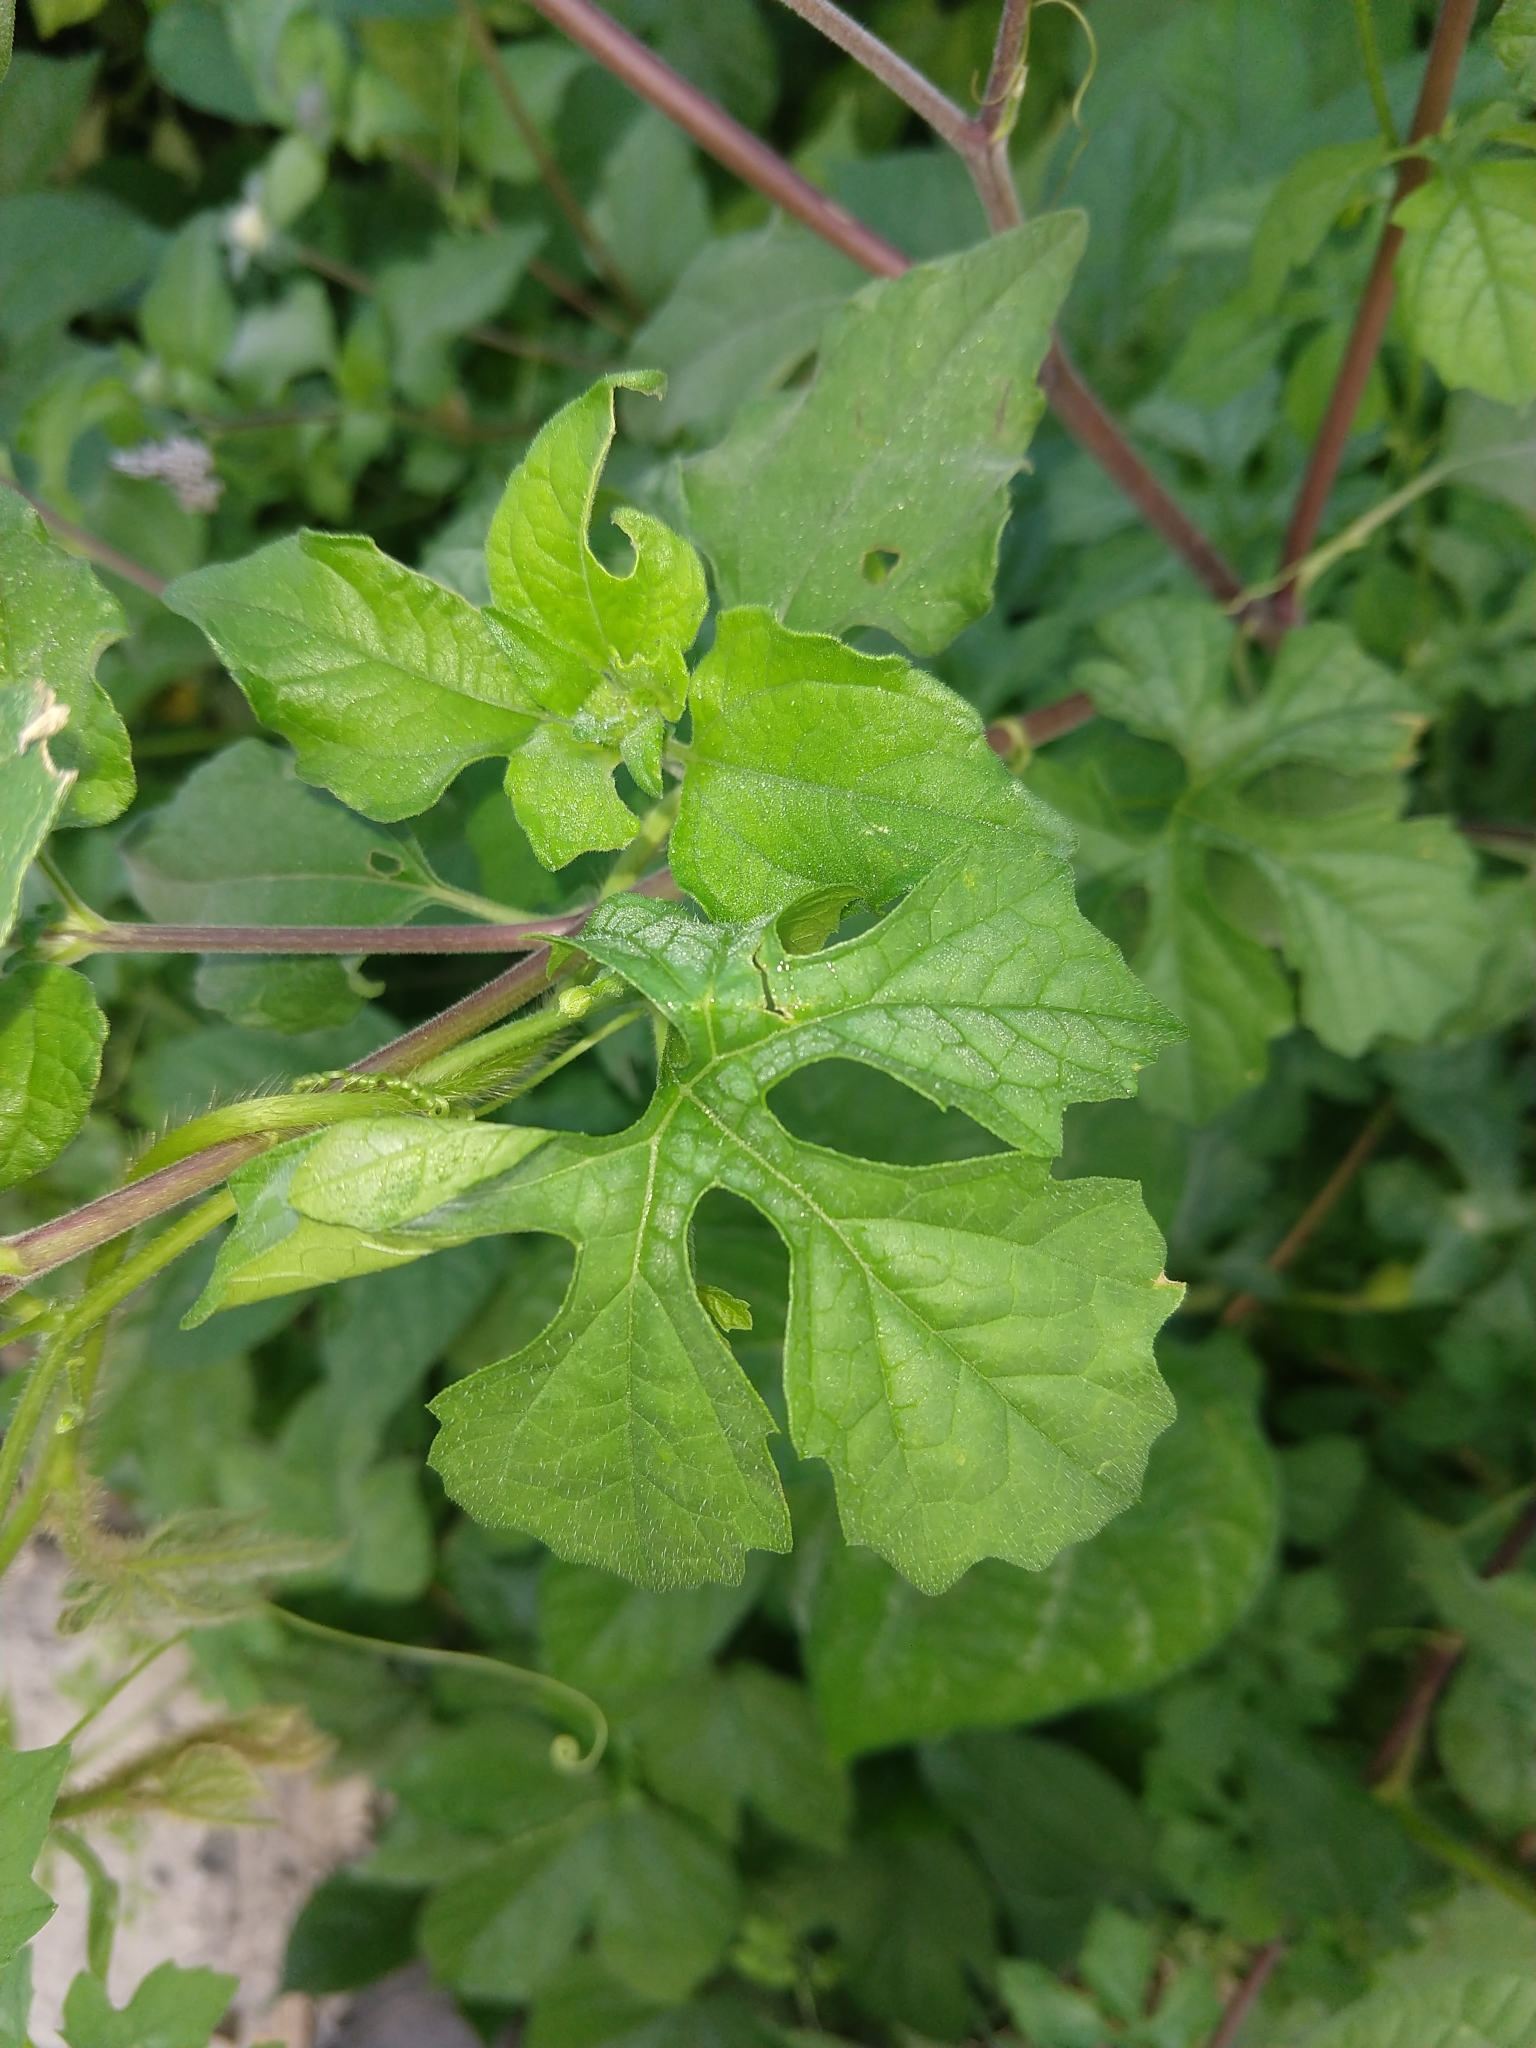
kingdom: Plantae
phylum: Tracheophyta
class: Magnoliopsida
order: Asterales
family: Asteraceae
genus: Melanthera
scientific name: Melanthera nivea
